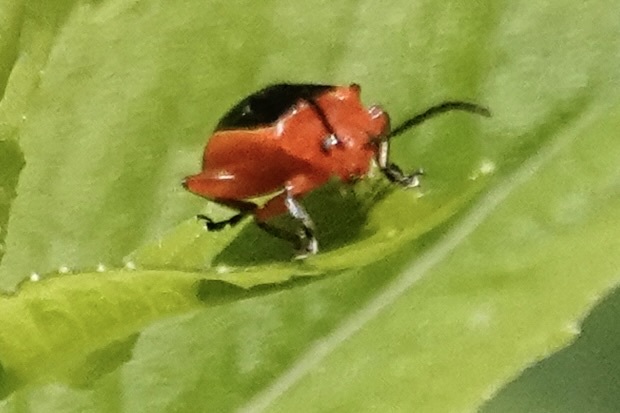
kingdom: Animalia
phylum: Arthropoda
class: Insecta
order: Coleoptera
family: Chrysomelidae
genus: Disonycha
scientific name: Disonycha discoidea
